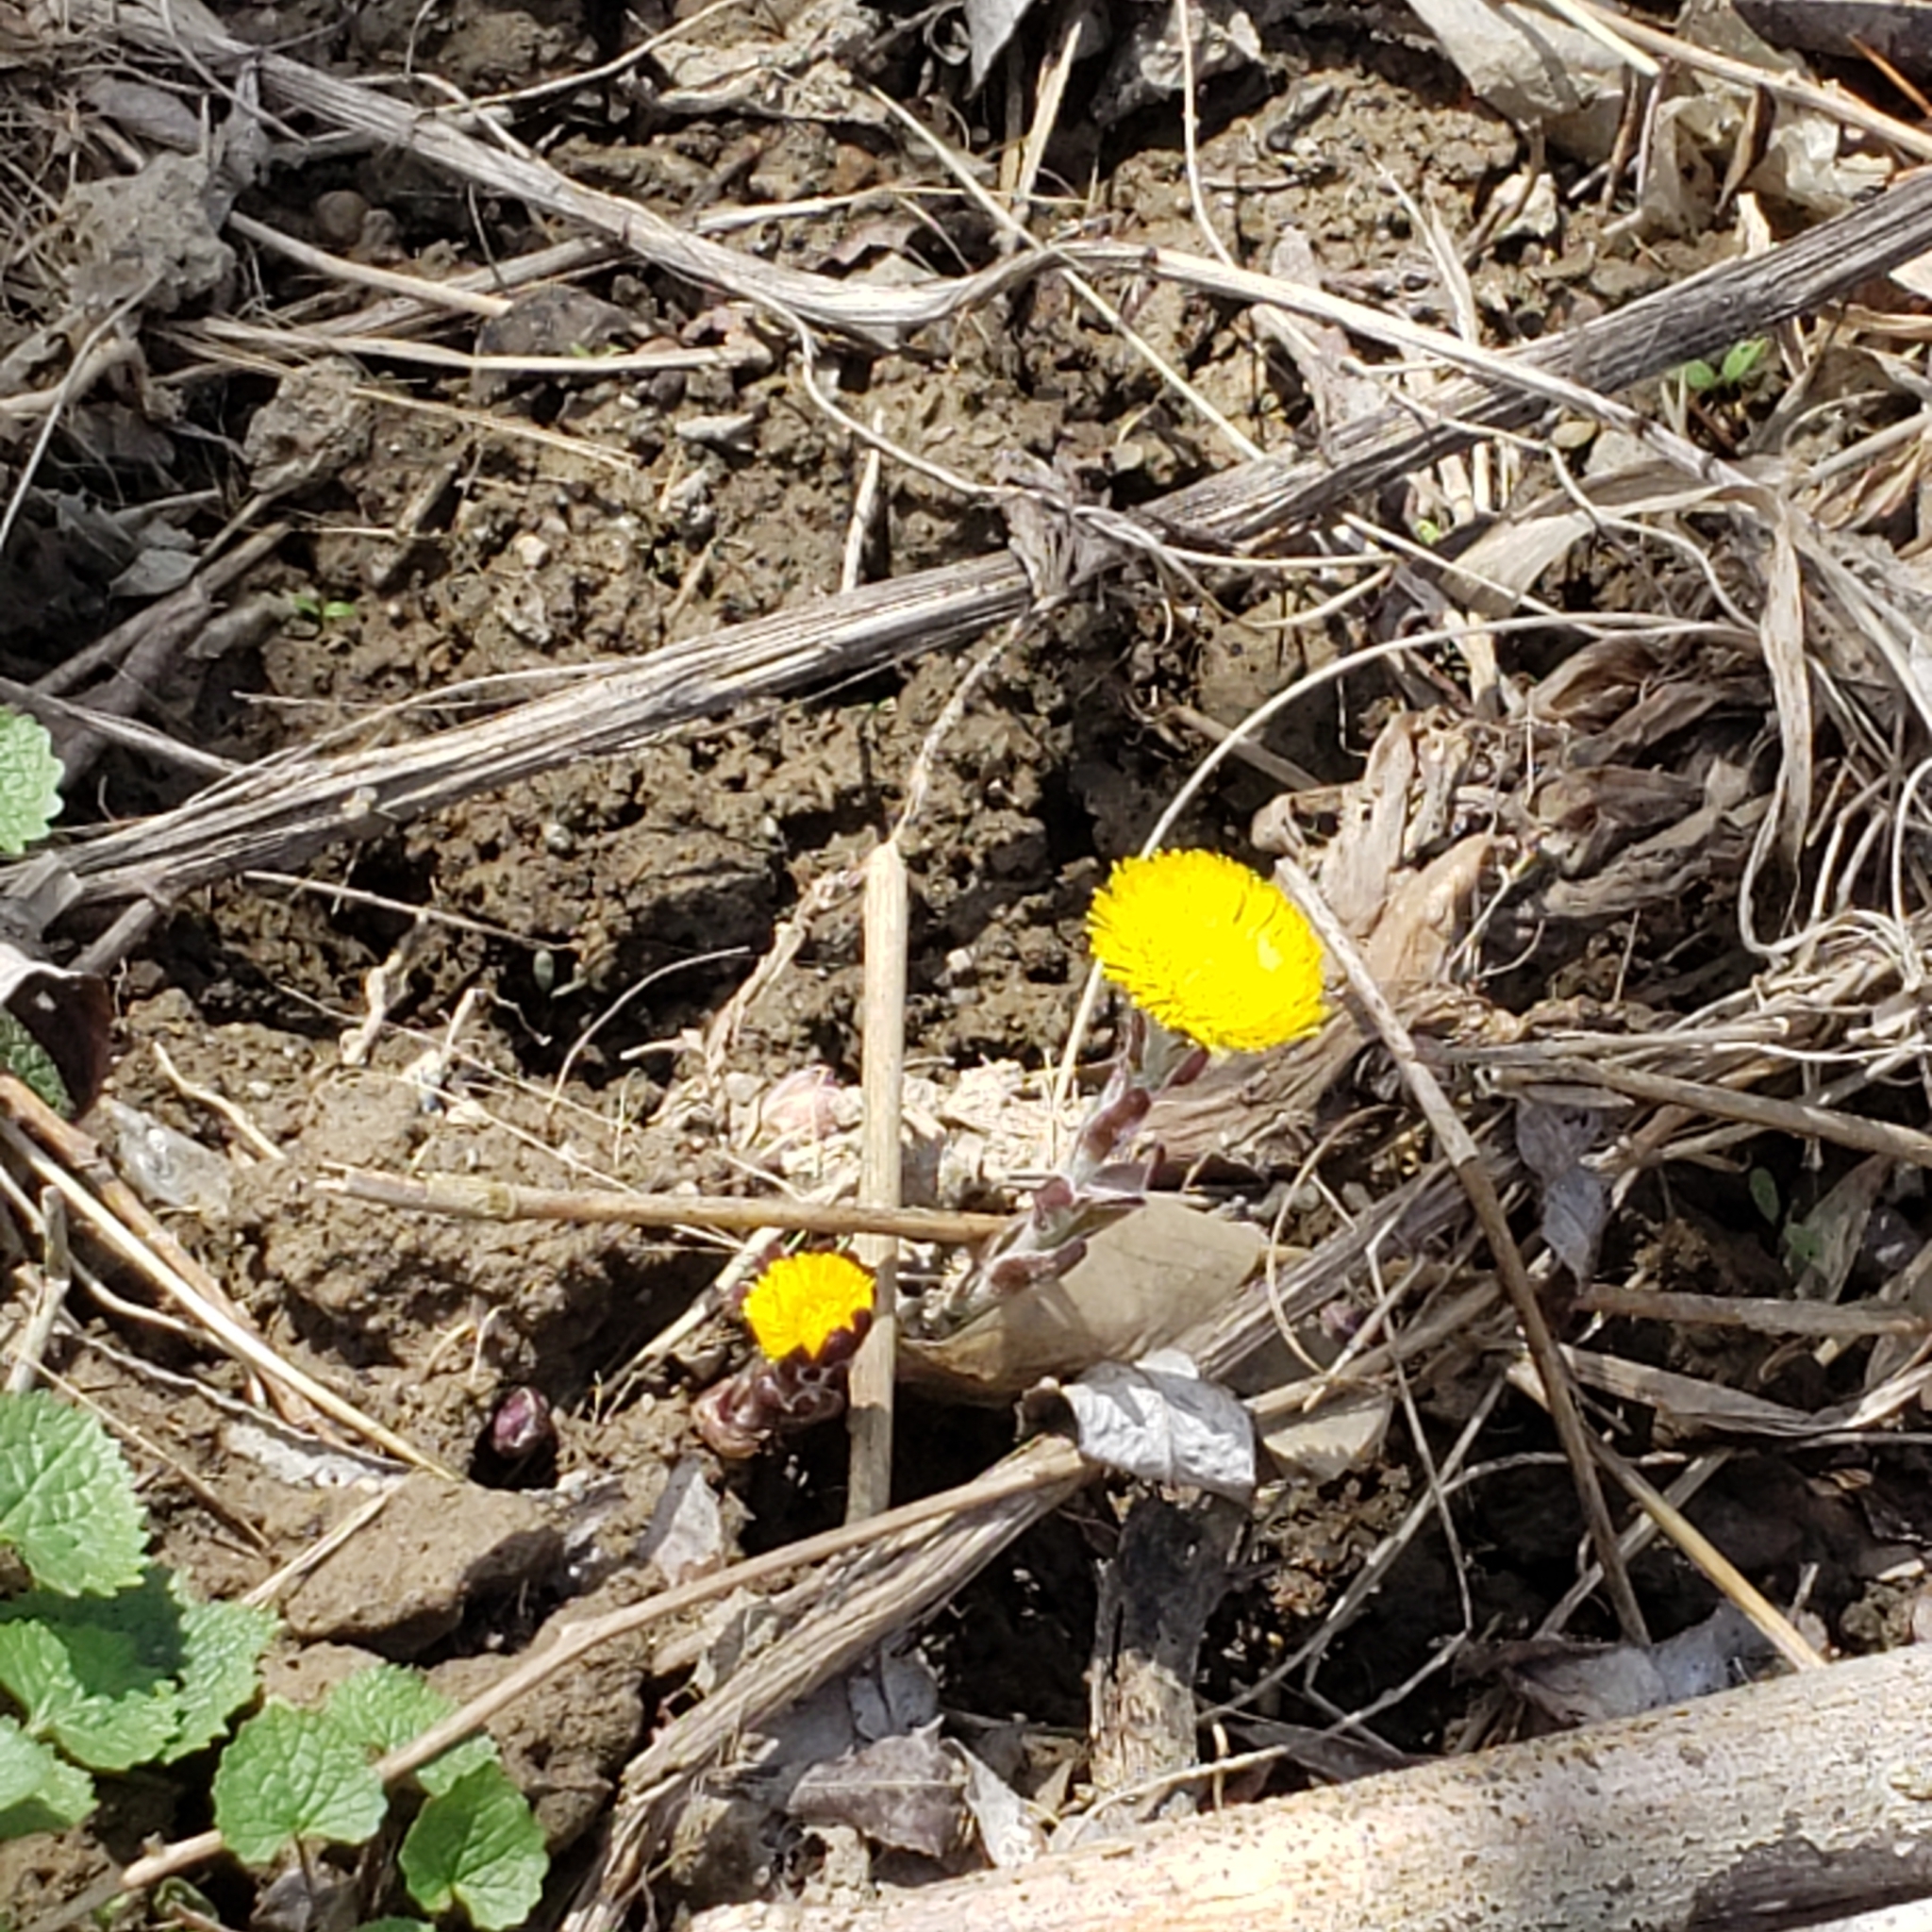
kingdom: Plantae
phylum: Tracheophyta
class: Magnoliopsida
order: Asterales
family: Asteraceae
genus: Tussilago
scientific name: Tussilago farfara
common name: Coltsfoot
